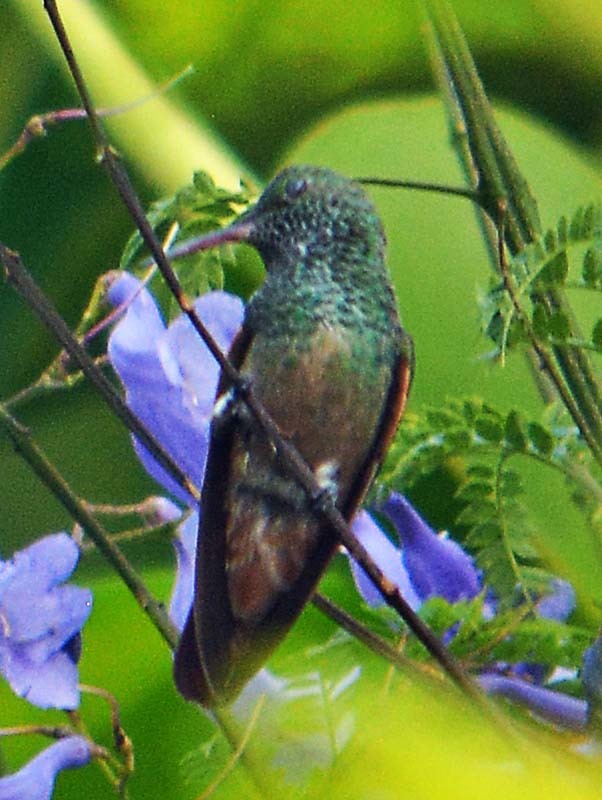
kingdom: Animalia
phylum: Chordata
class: Aves
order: Apodiformes
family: Trochilidae
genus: Saucerottia
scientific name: Saucerottia beryllina
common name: Berylline hummingbird
